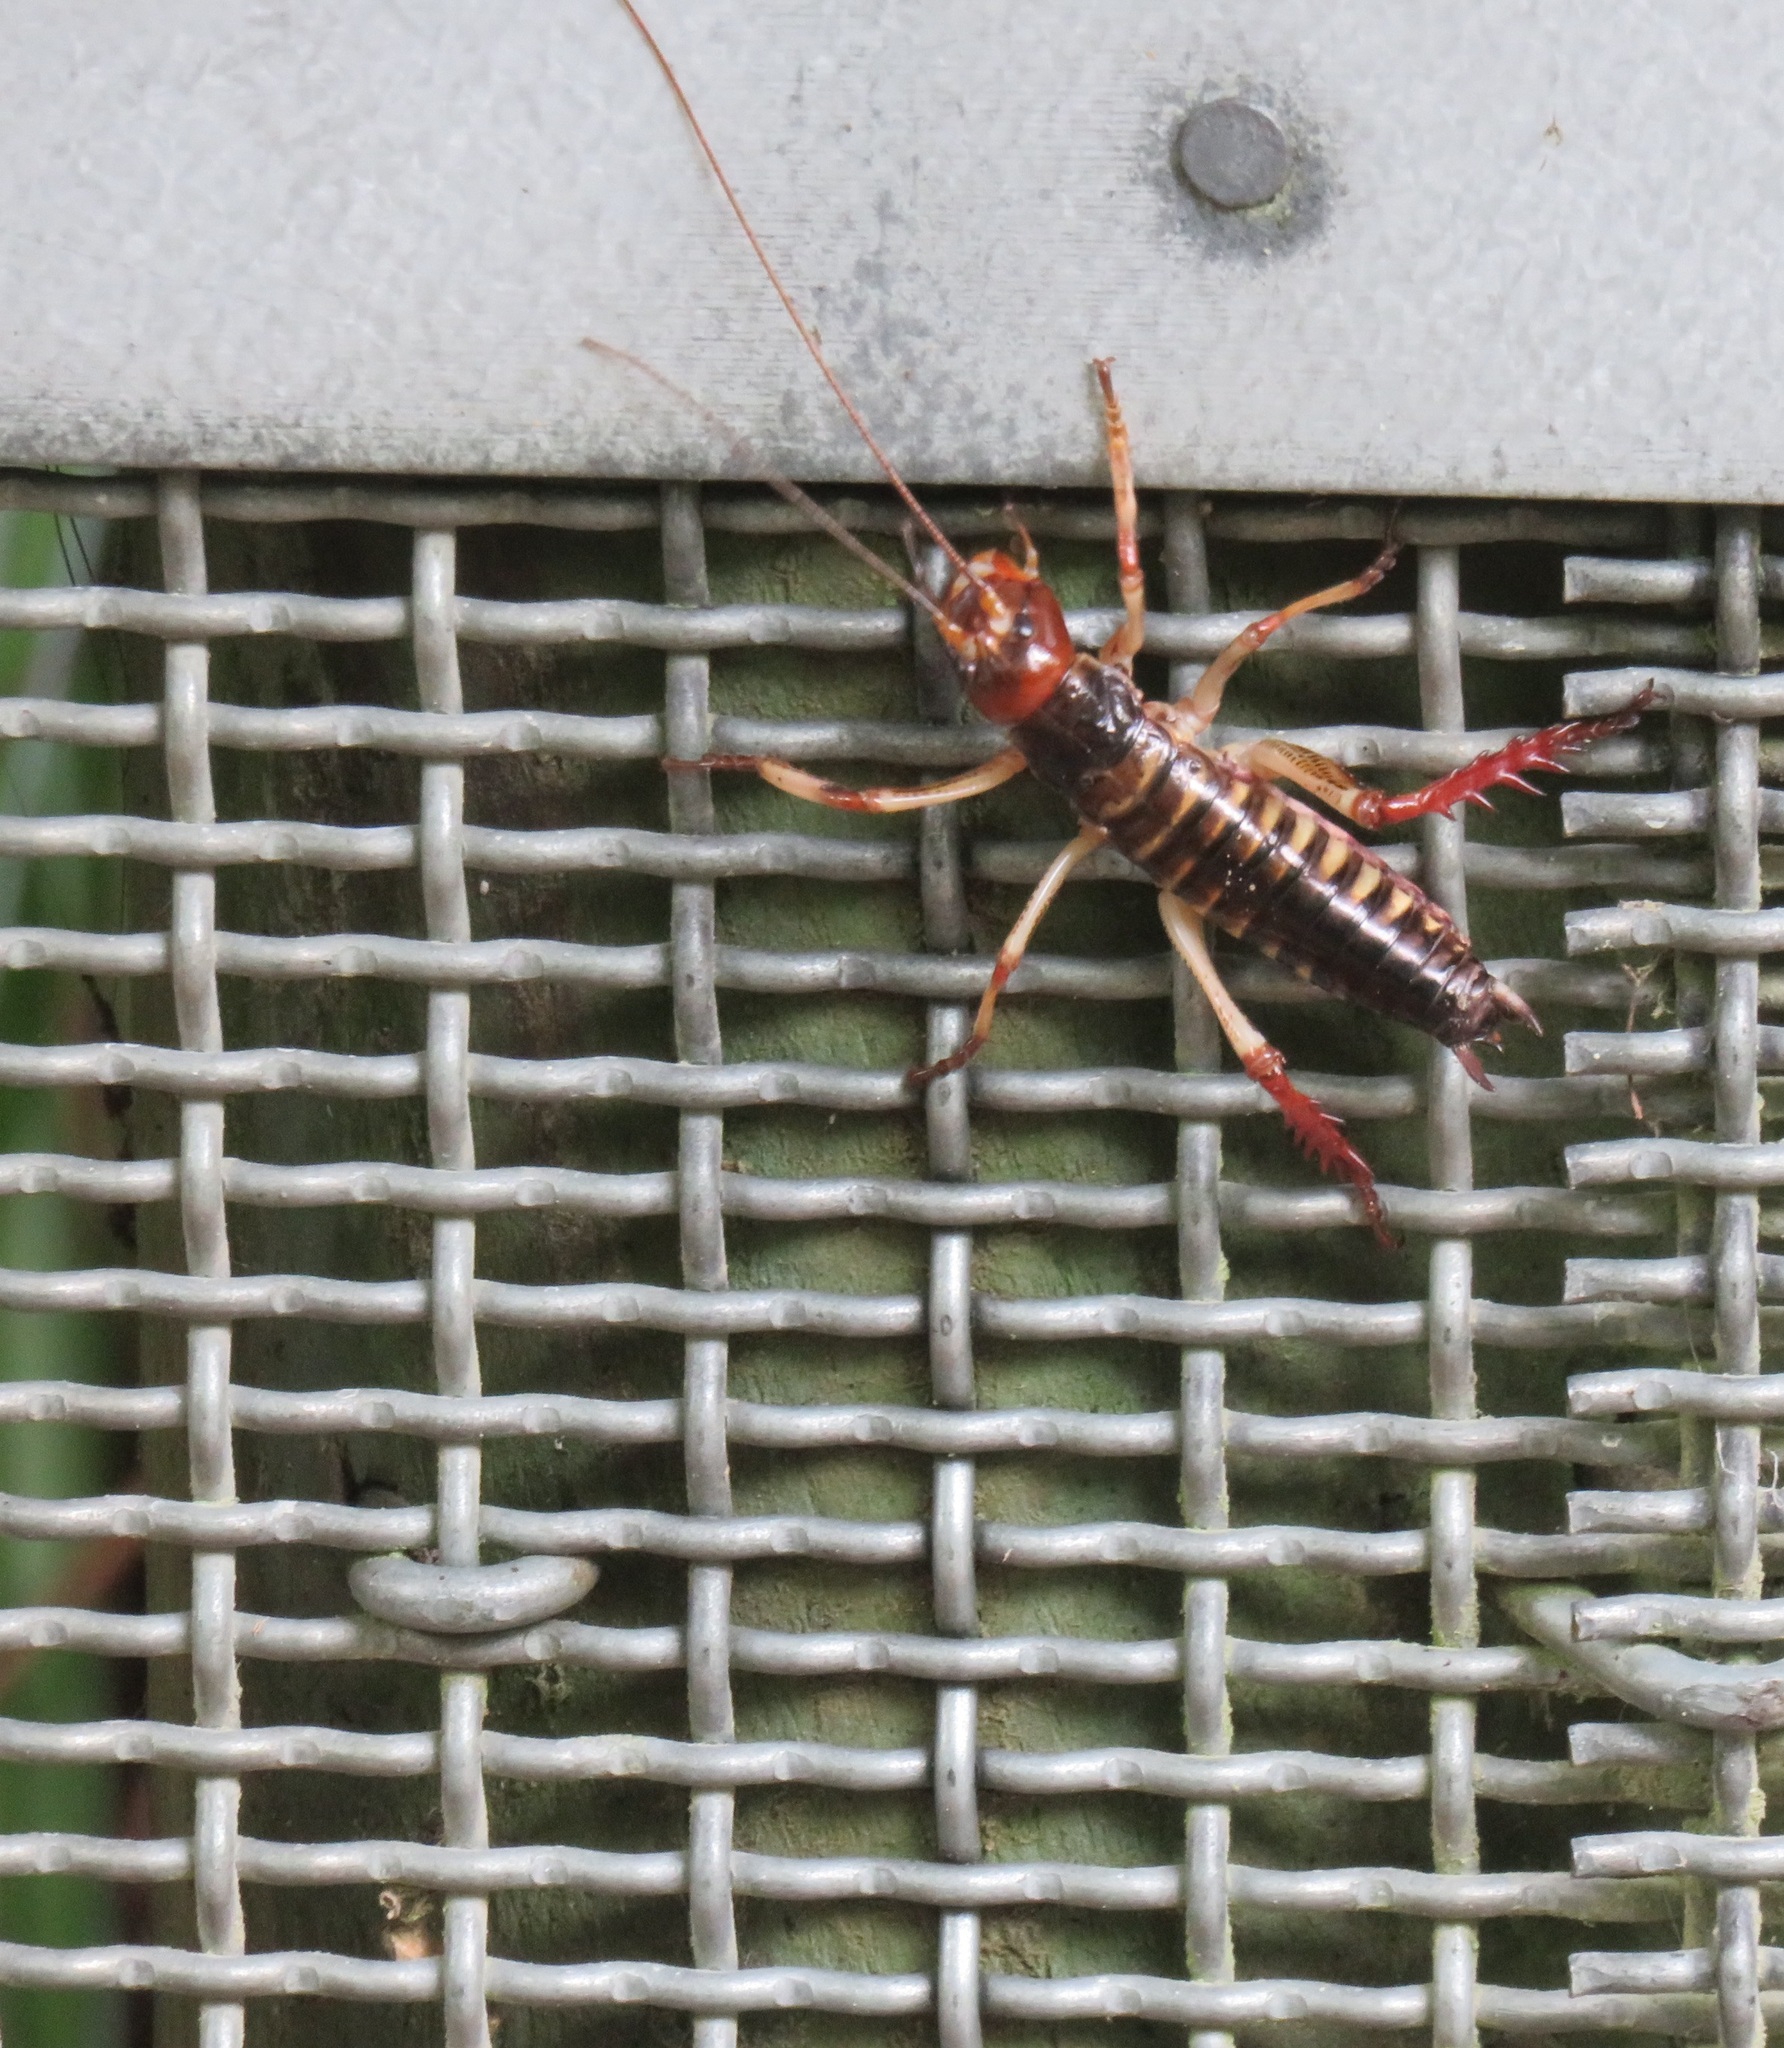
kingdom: Animalia
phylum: Arthropoda
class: Insecta
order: Orthoptera
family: Anostostomatidae
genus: Hemideina
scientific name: Hemideina crassidens
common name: Wellington tree weta
